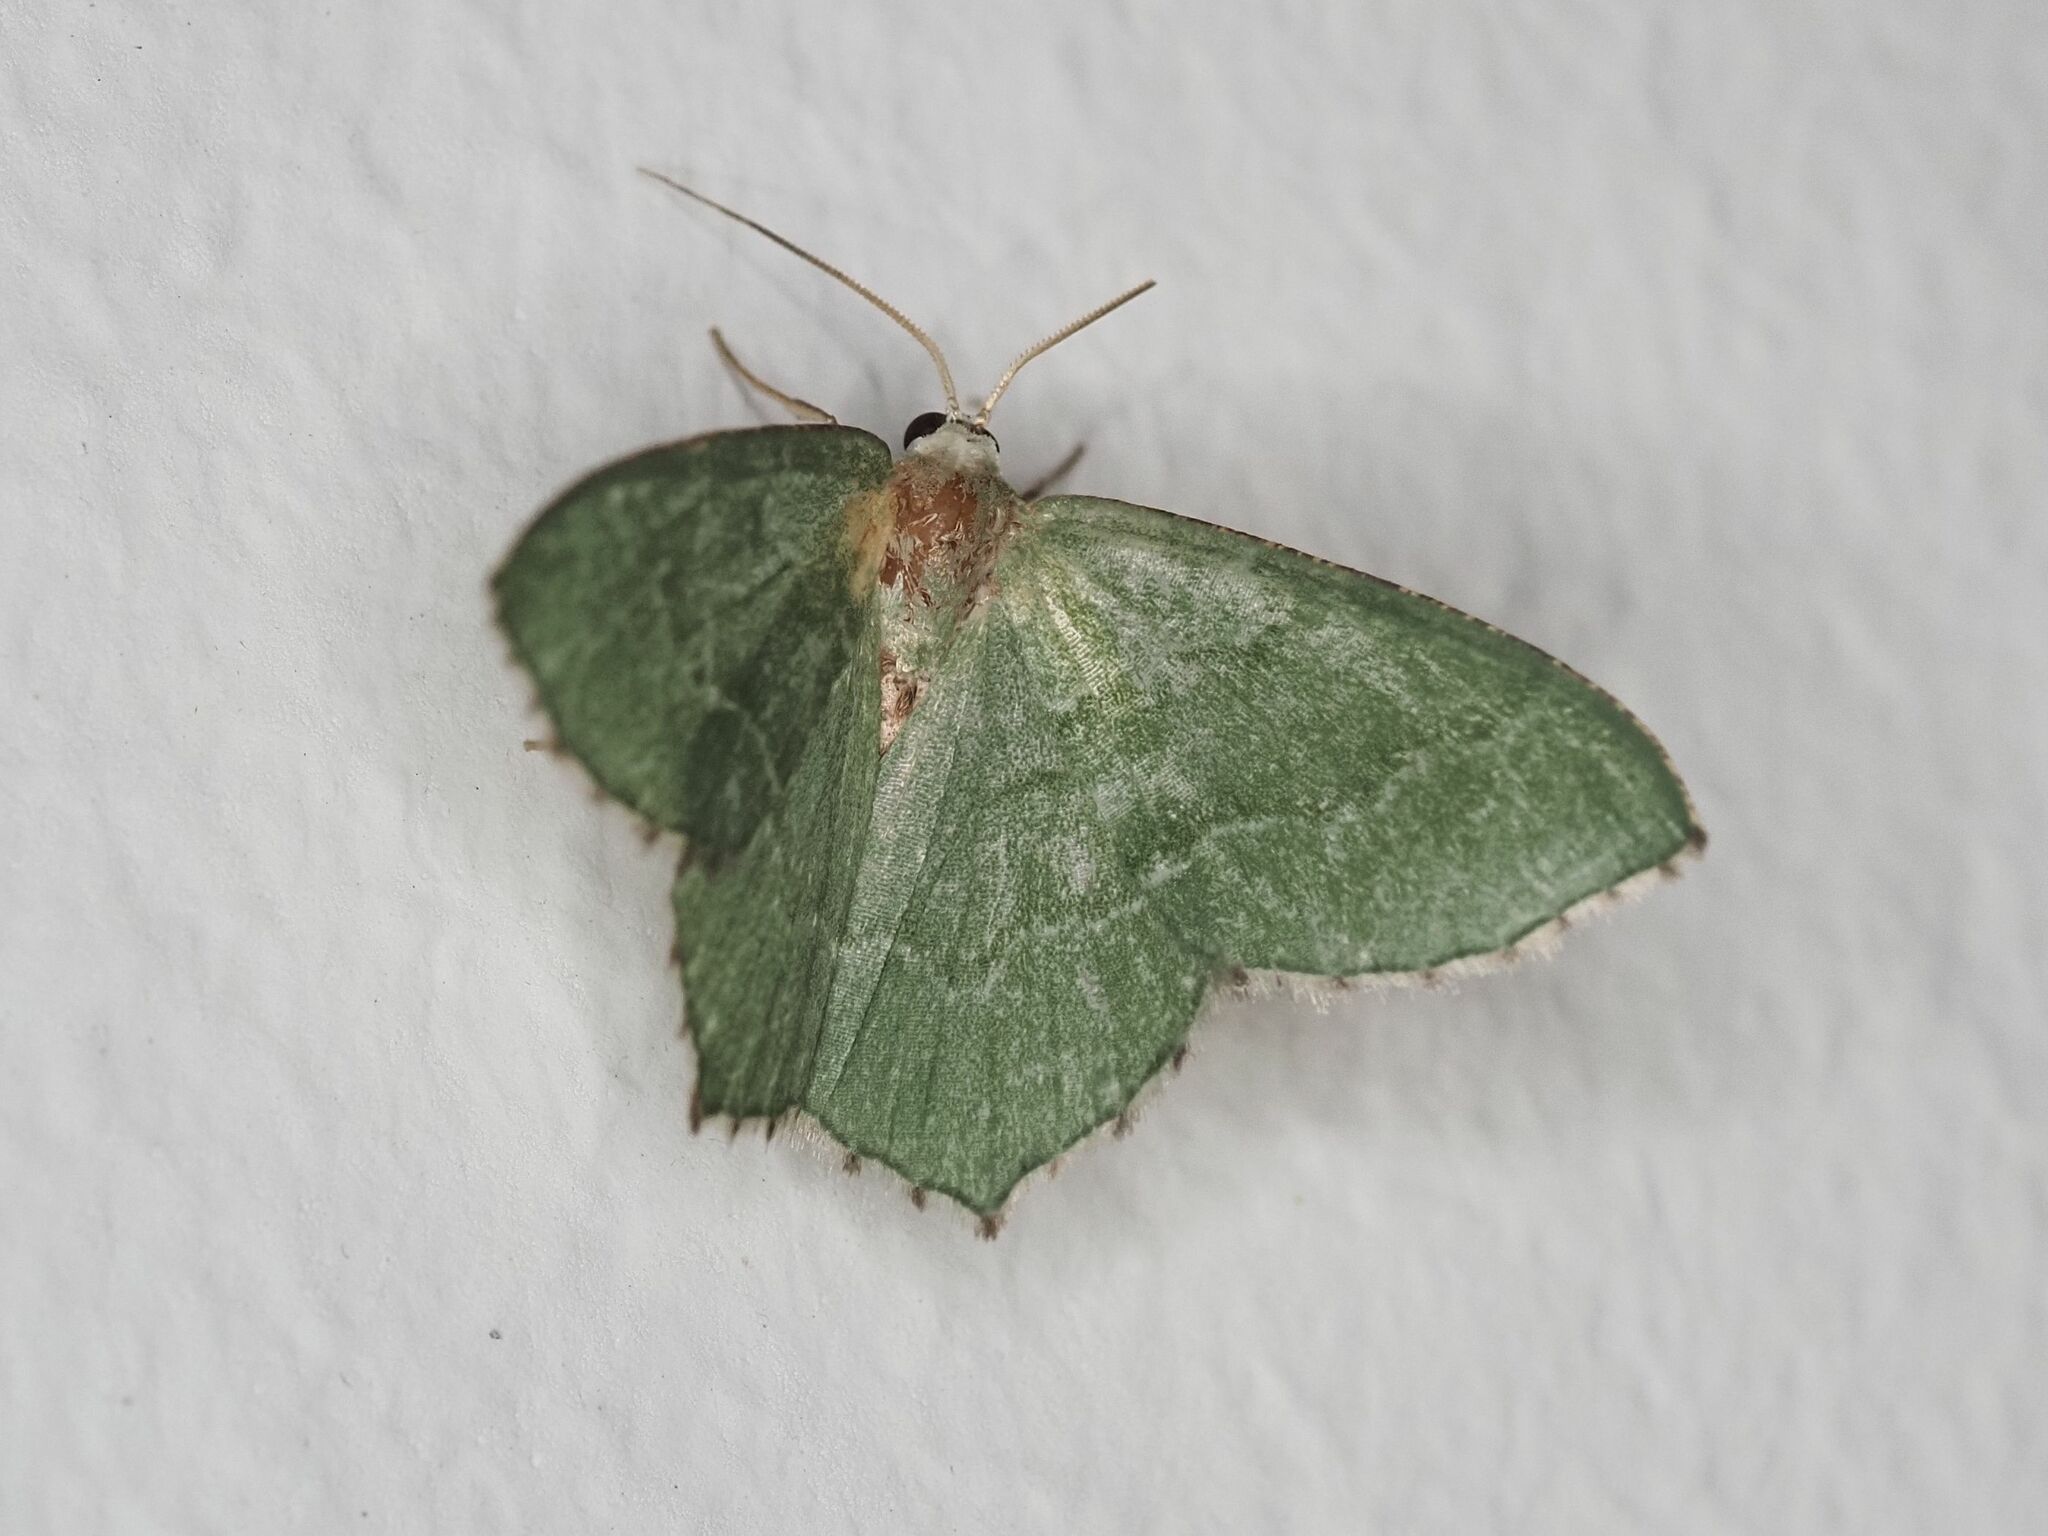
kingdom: Animalia
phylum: Arthropoda
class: Insecta
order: Lepidoptera
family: Geometridae
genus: Hemithea
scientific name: Hemithea aestivaria
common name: Common emerald
